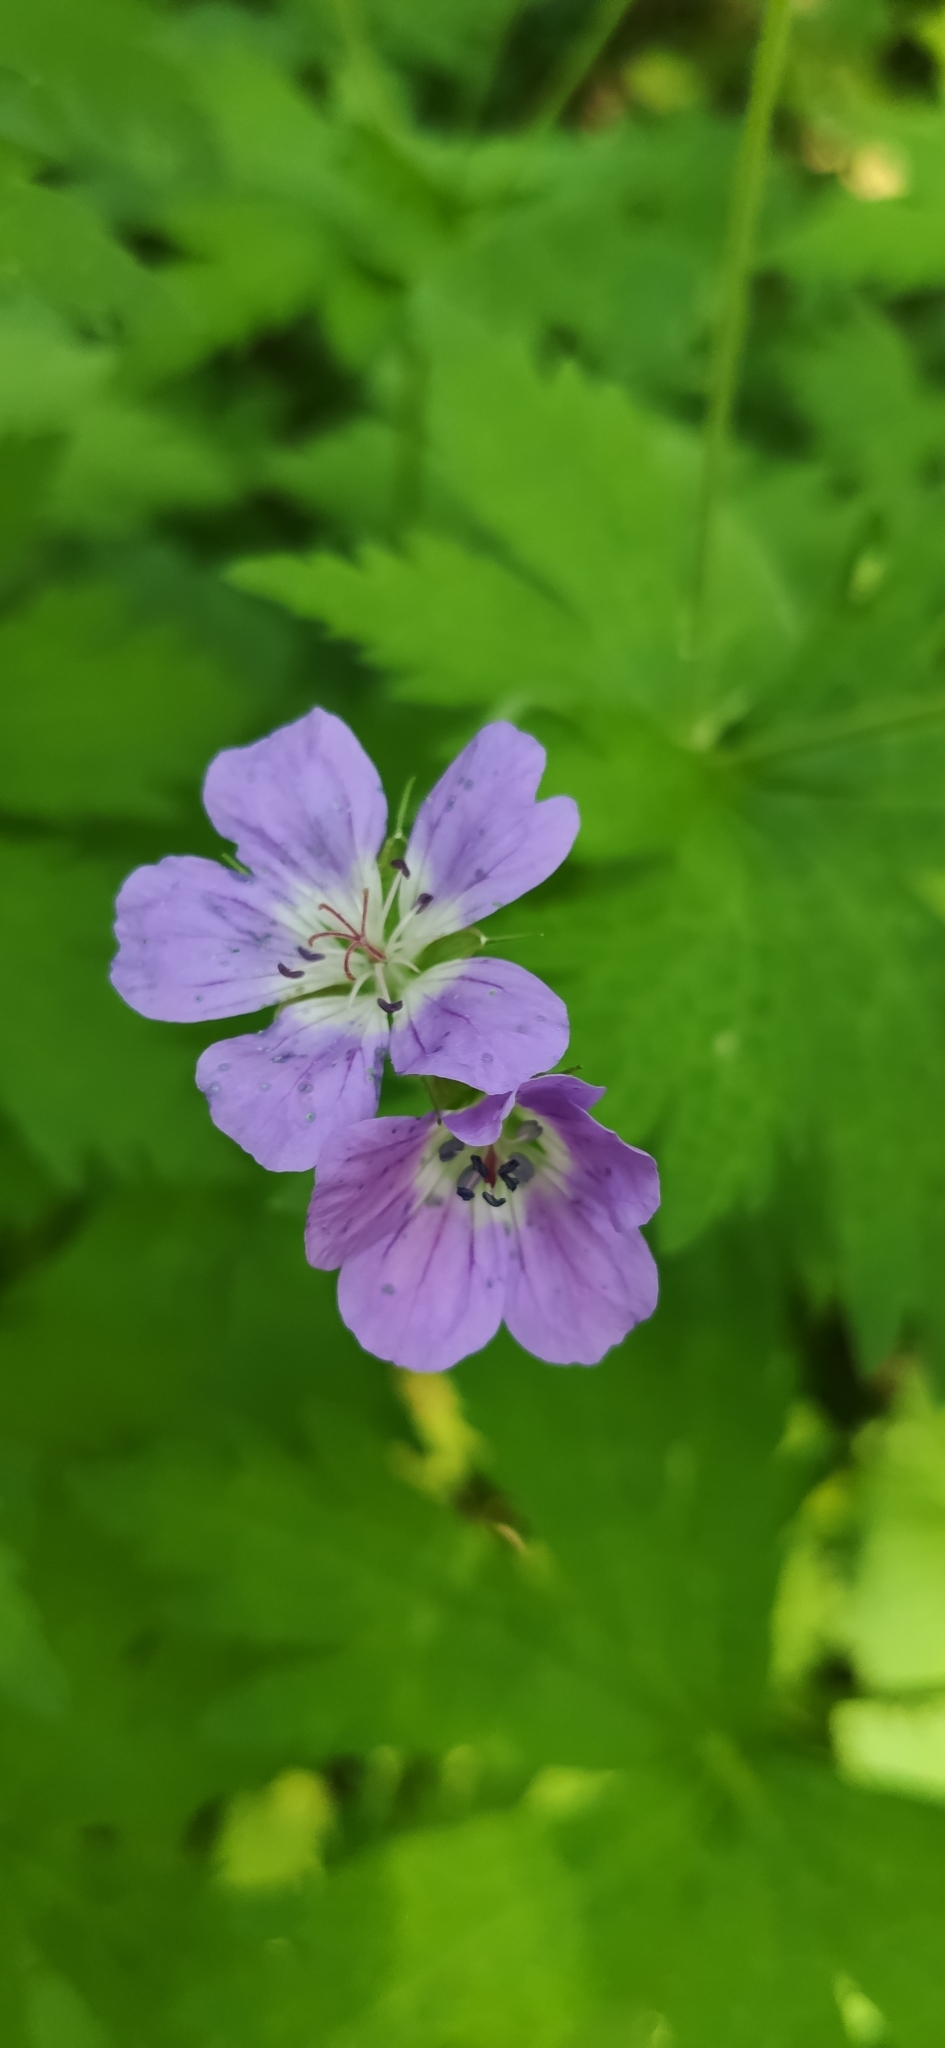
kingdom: Plantae
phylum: Tracheophyta
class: Magnoliopsida
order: Geraniales
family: Geraniaceae
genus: Geranium
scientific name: Geranium sylvaticum
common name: Wood crane's-bill
